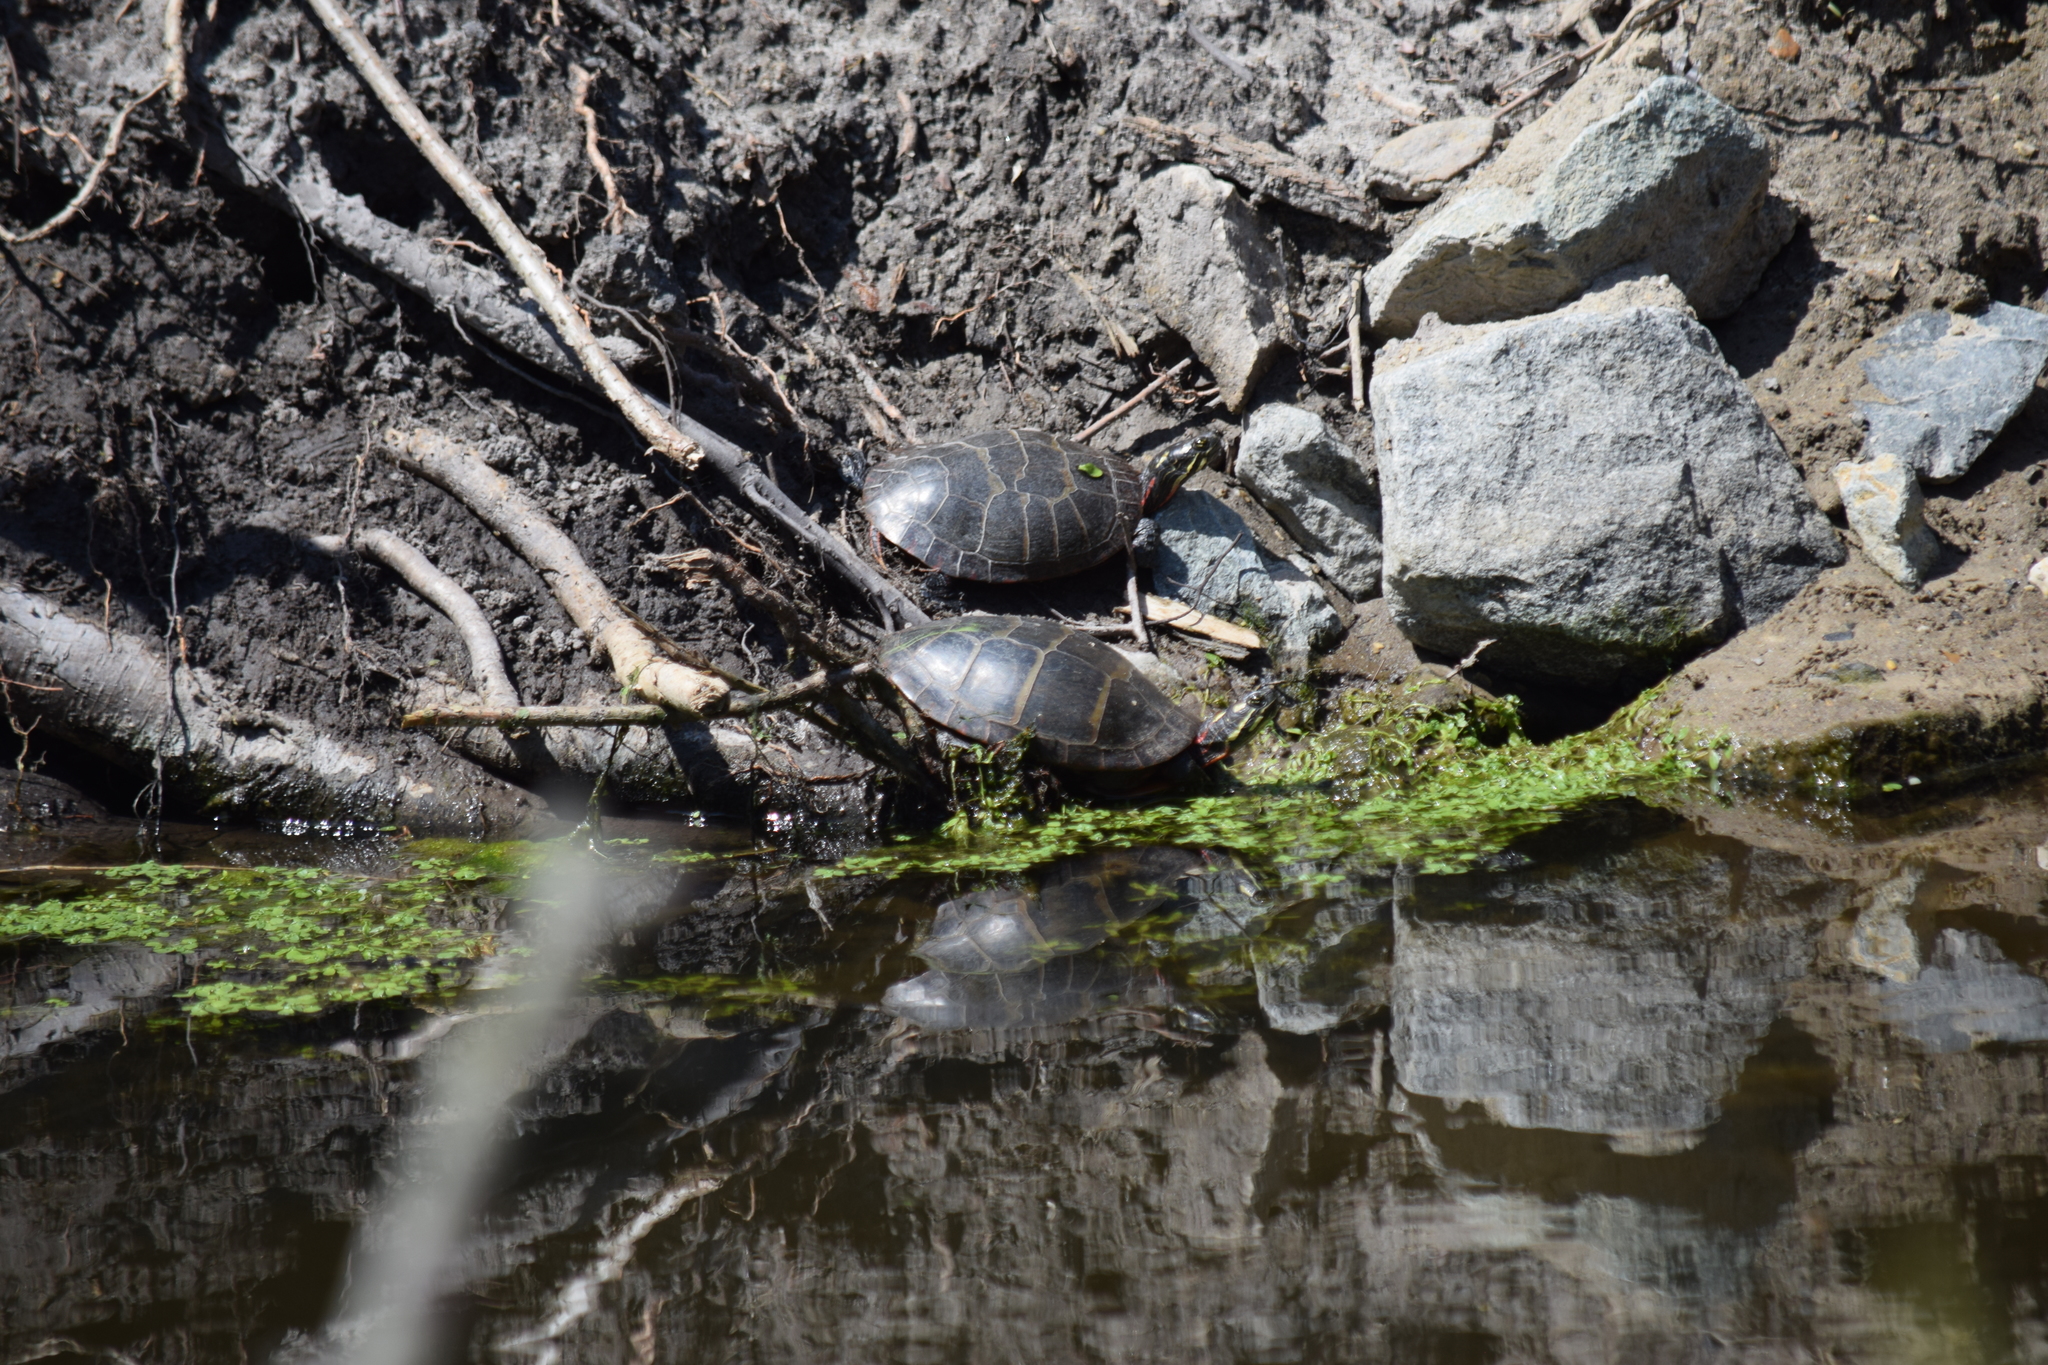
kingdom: Animalia
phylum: Chordata
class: Testudines
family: Emydidae
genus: Chrysemys
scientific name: Chrysemys picta
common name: Painted turtle
